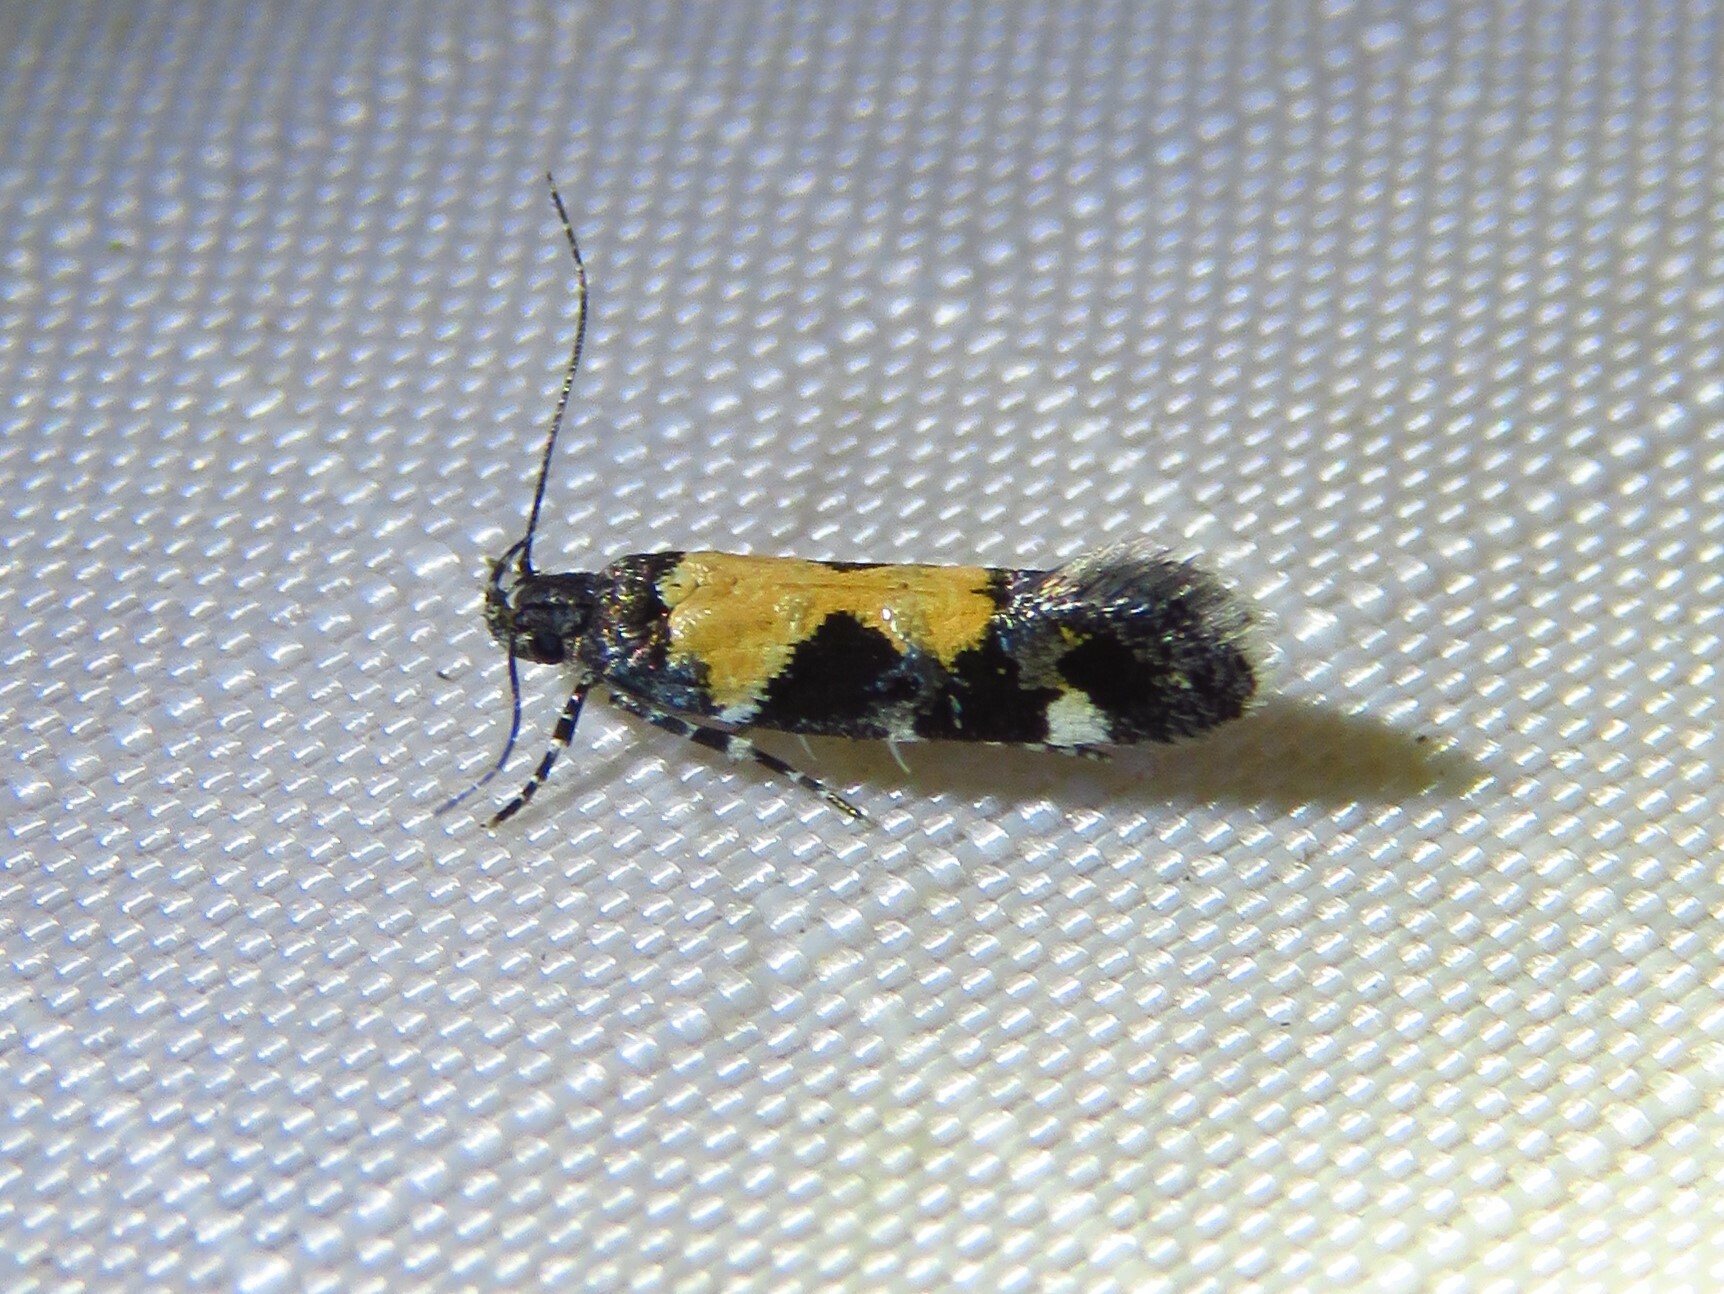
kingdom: Animalia
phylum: Arthropoda
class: Insecta
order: Lepidoptera
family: Gelechiidae
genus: Stegasta
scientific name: Stegasta bosqueella
